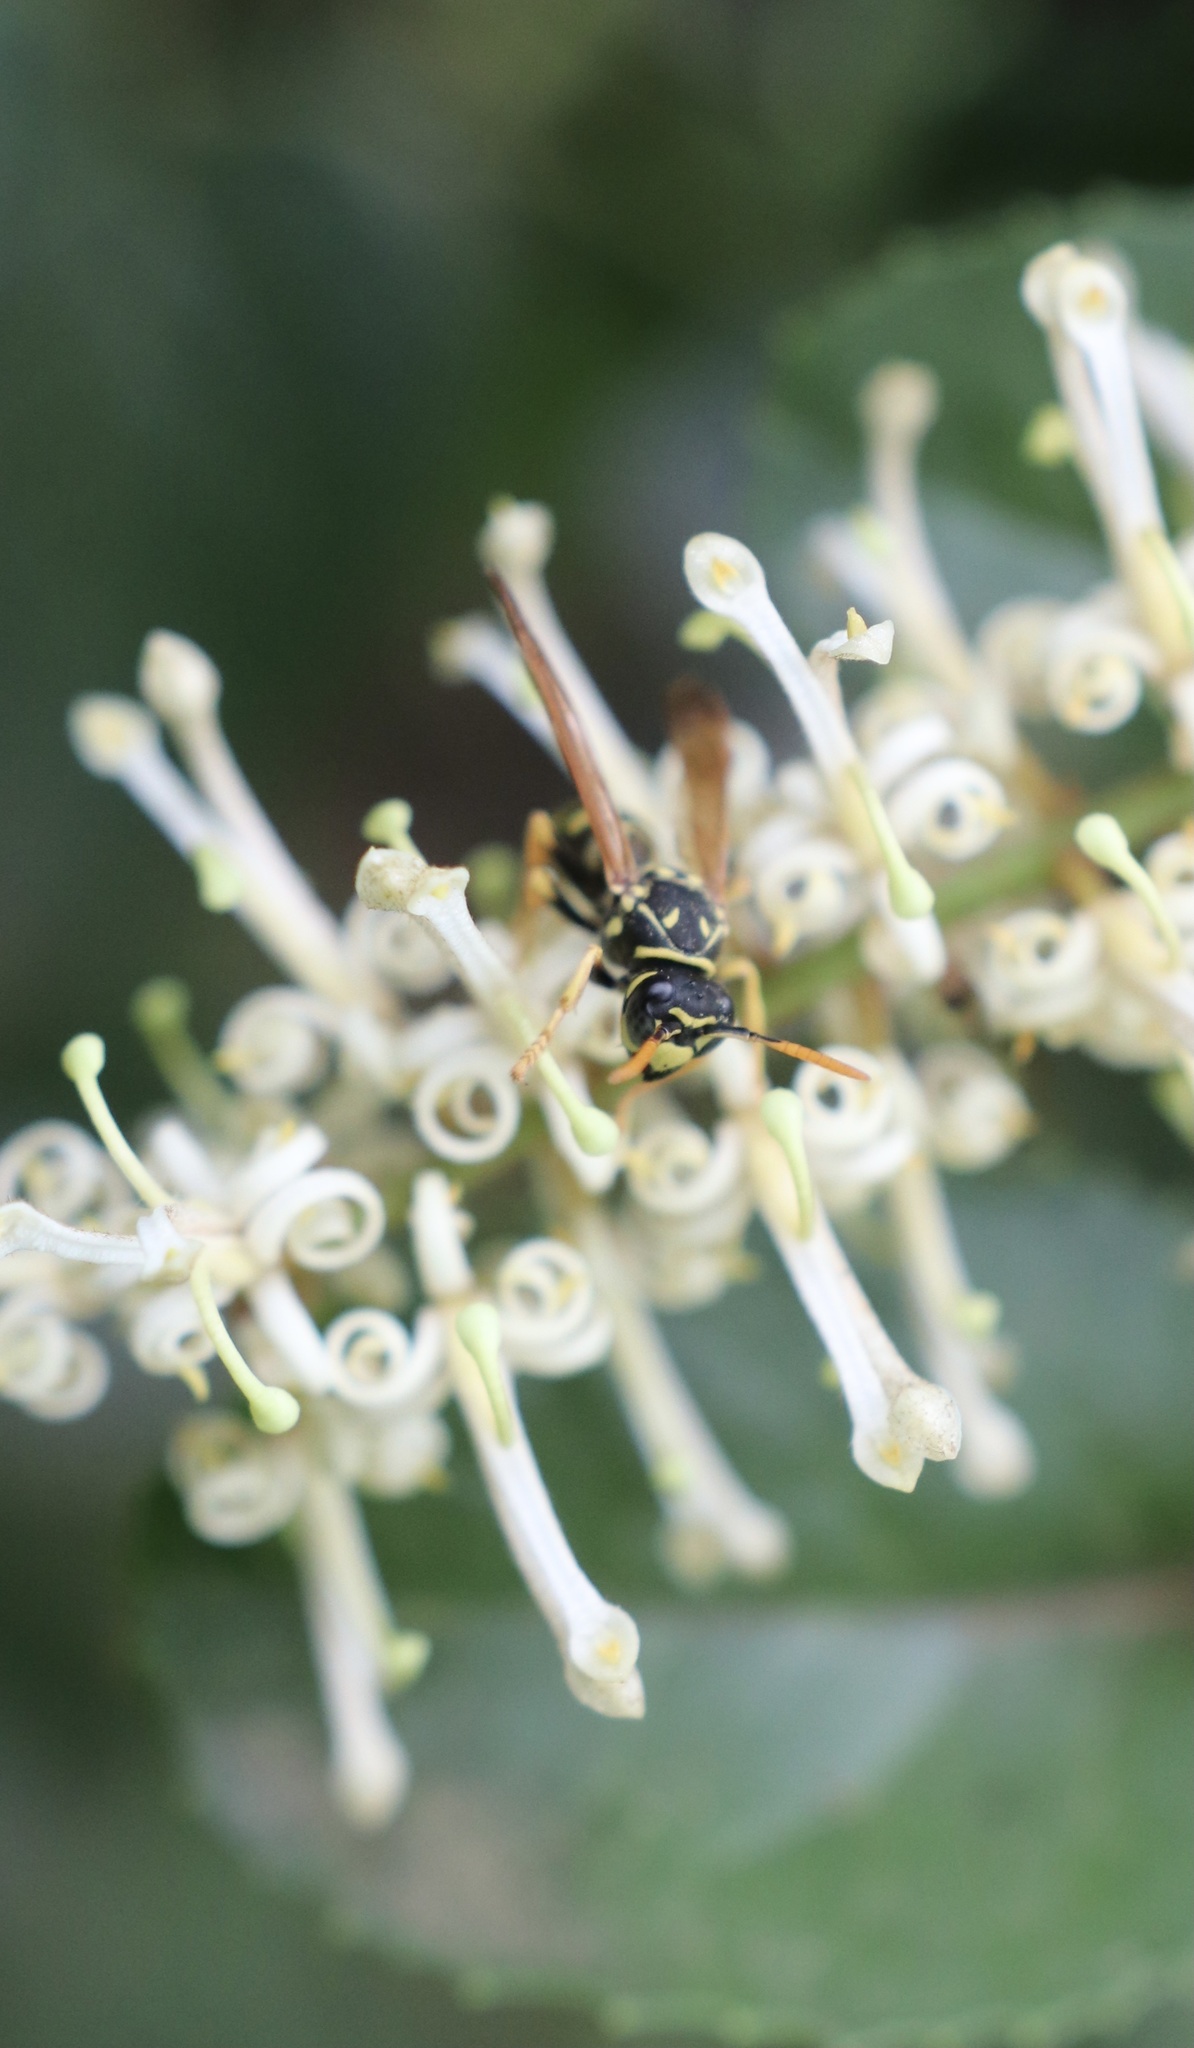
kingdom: Animalia
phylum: Arthropoda
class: Insecta
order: Hymenoptera
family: Eumenidae
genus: Polistes
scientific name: Polistes dominula
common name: Paper wasp
